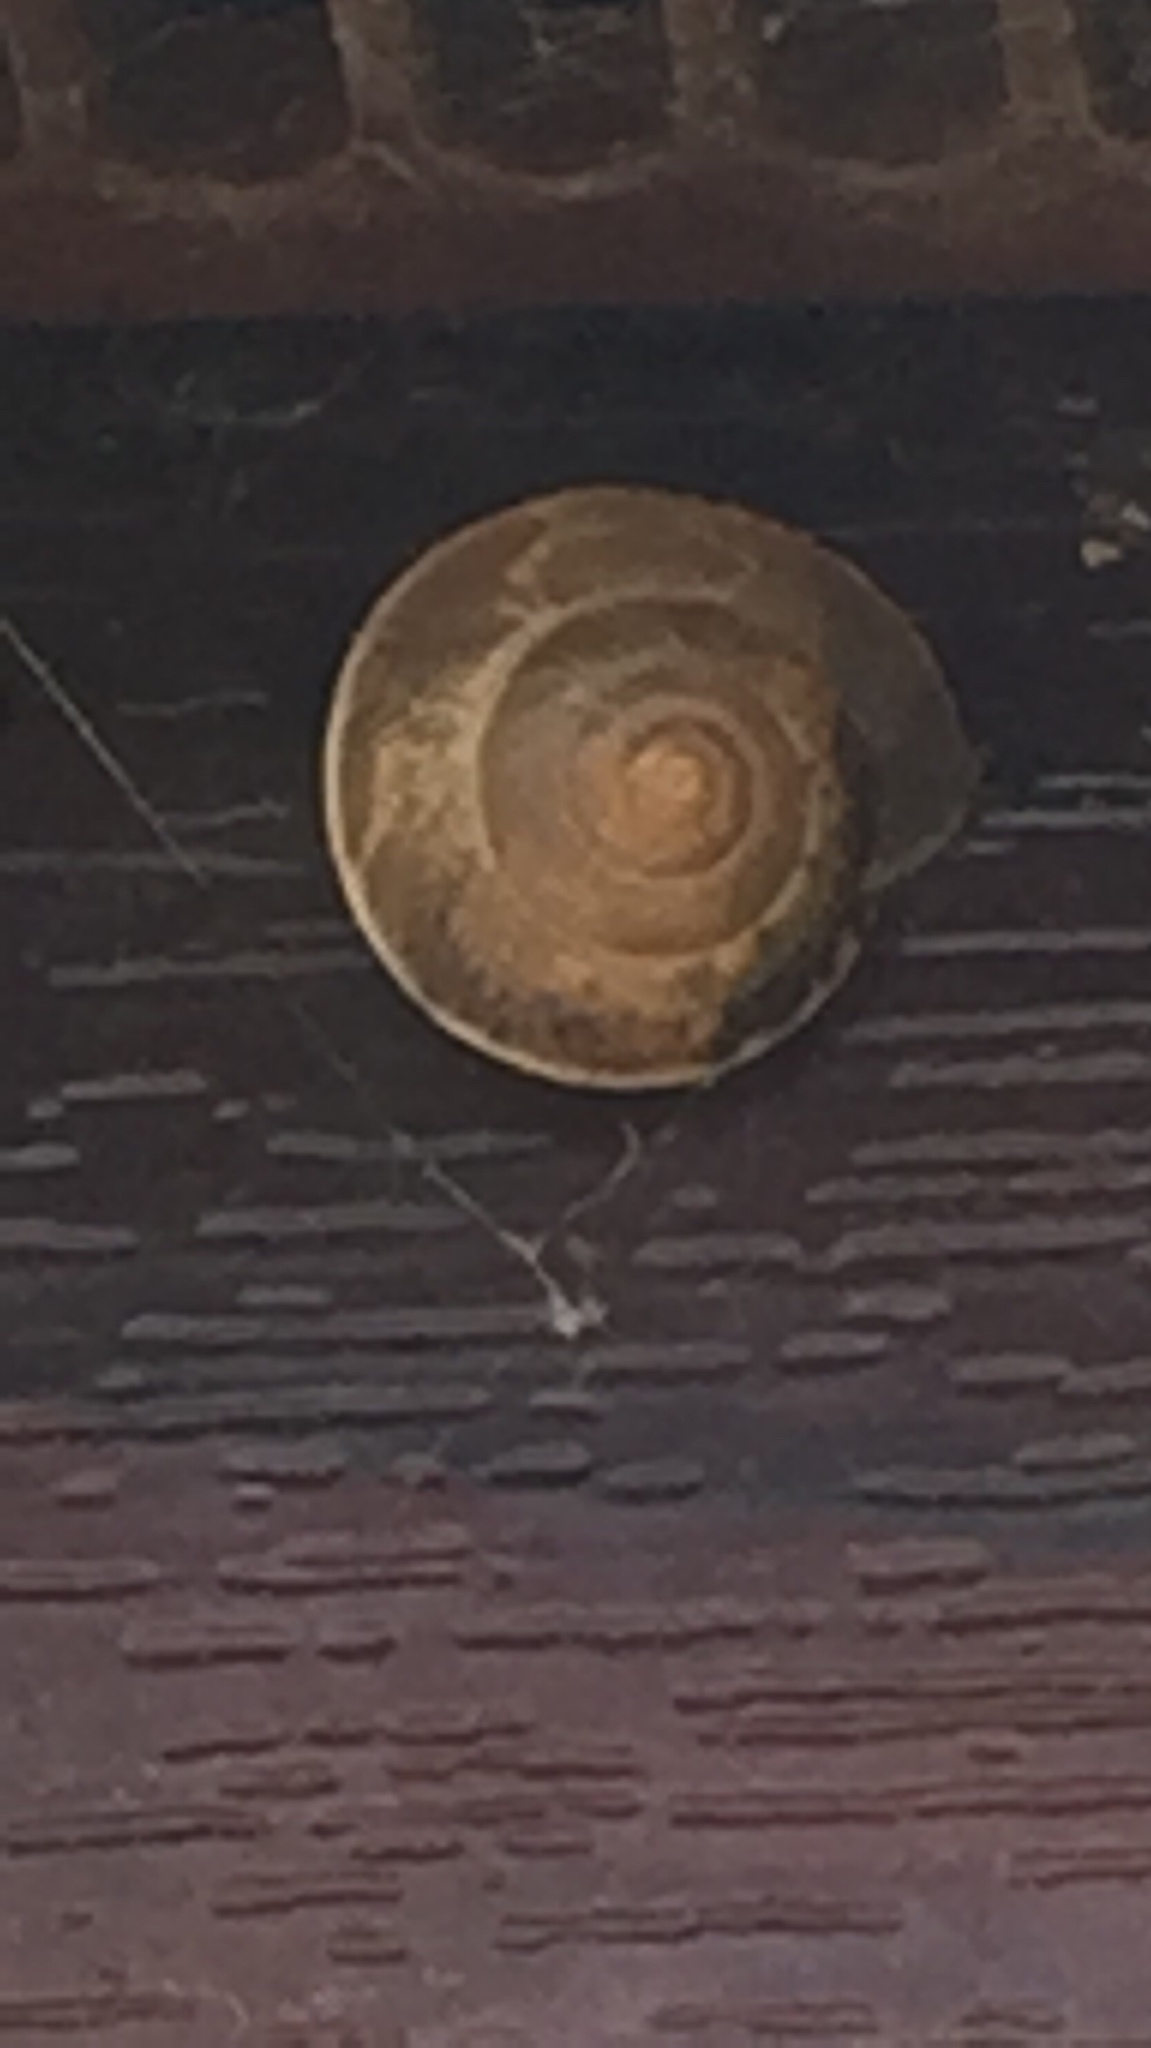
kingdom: Animalia
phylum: Mollusca
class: Gastropoda
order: Stylommatophora
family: Hygromiidae
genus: Hygromia
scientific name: Hygromia cinctella
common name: Girdled snail
